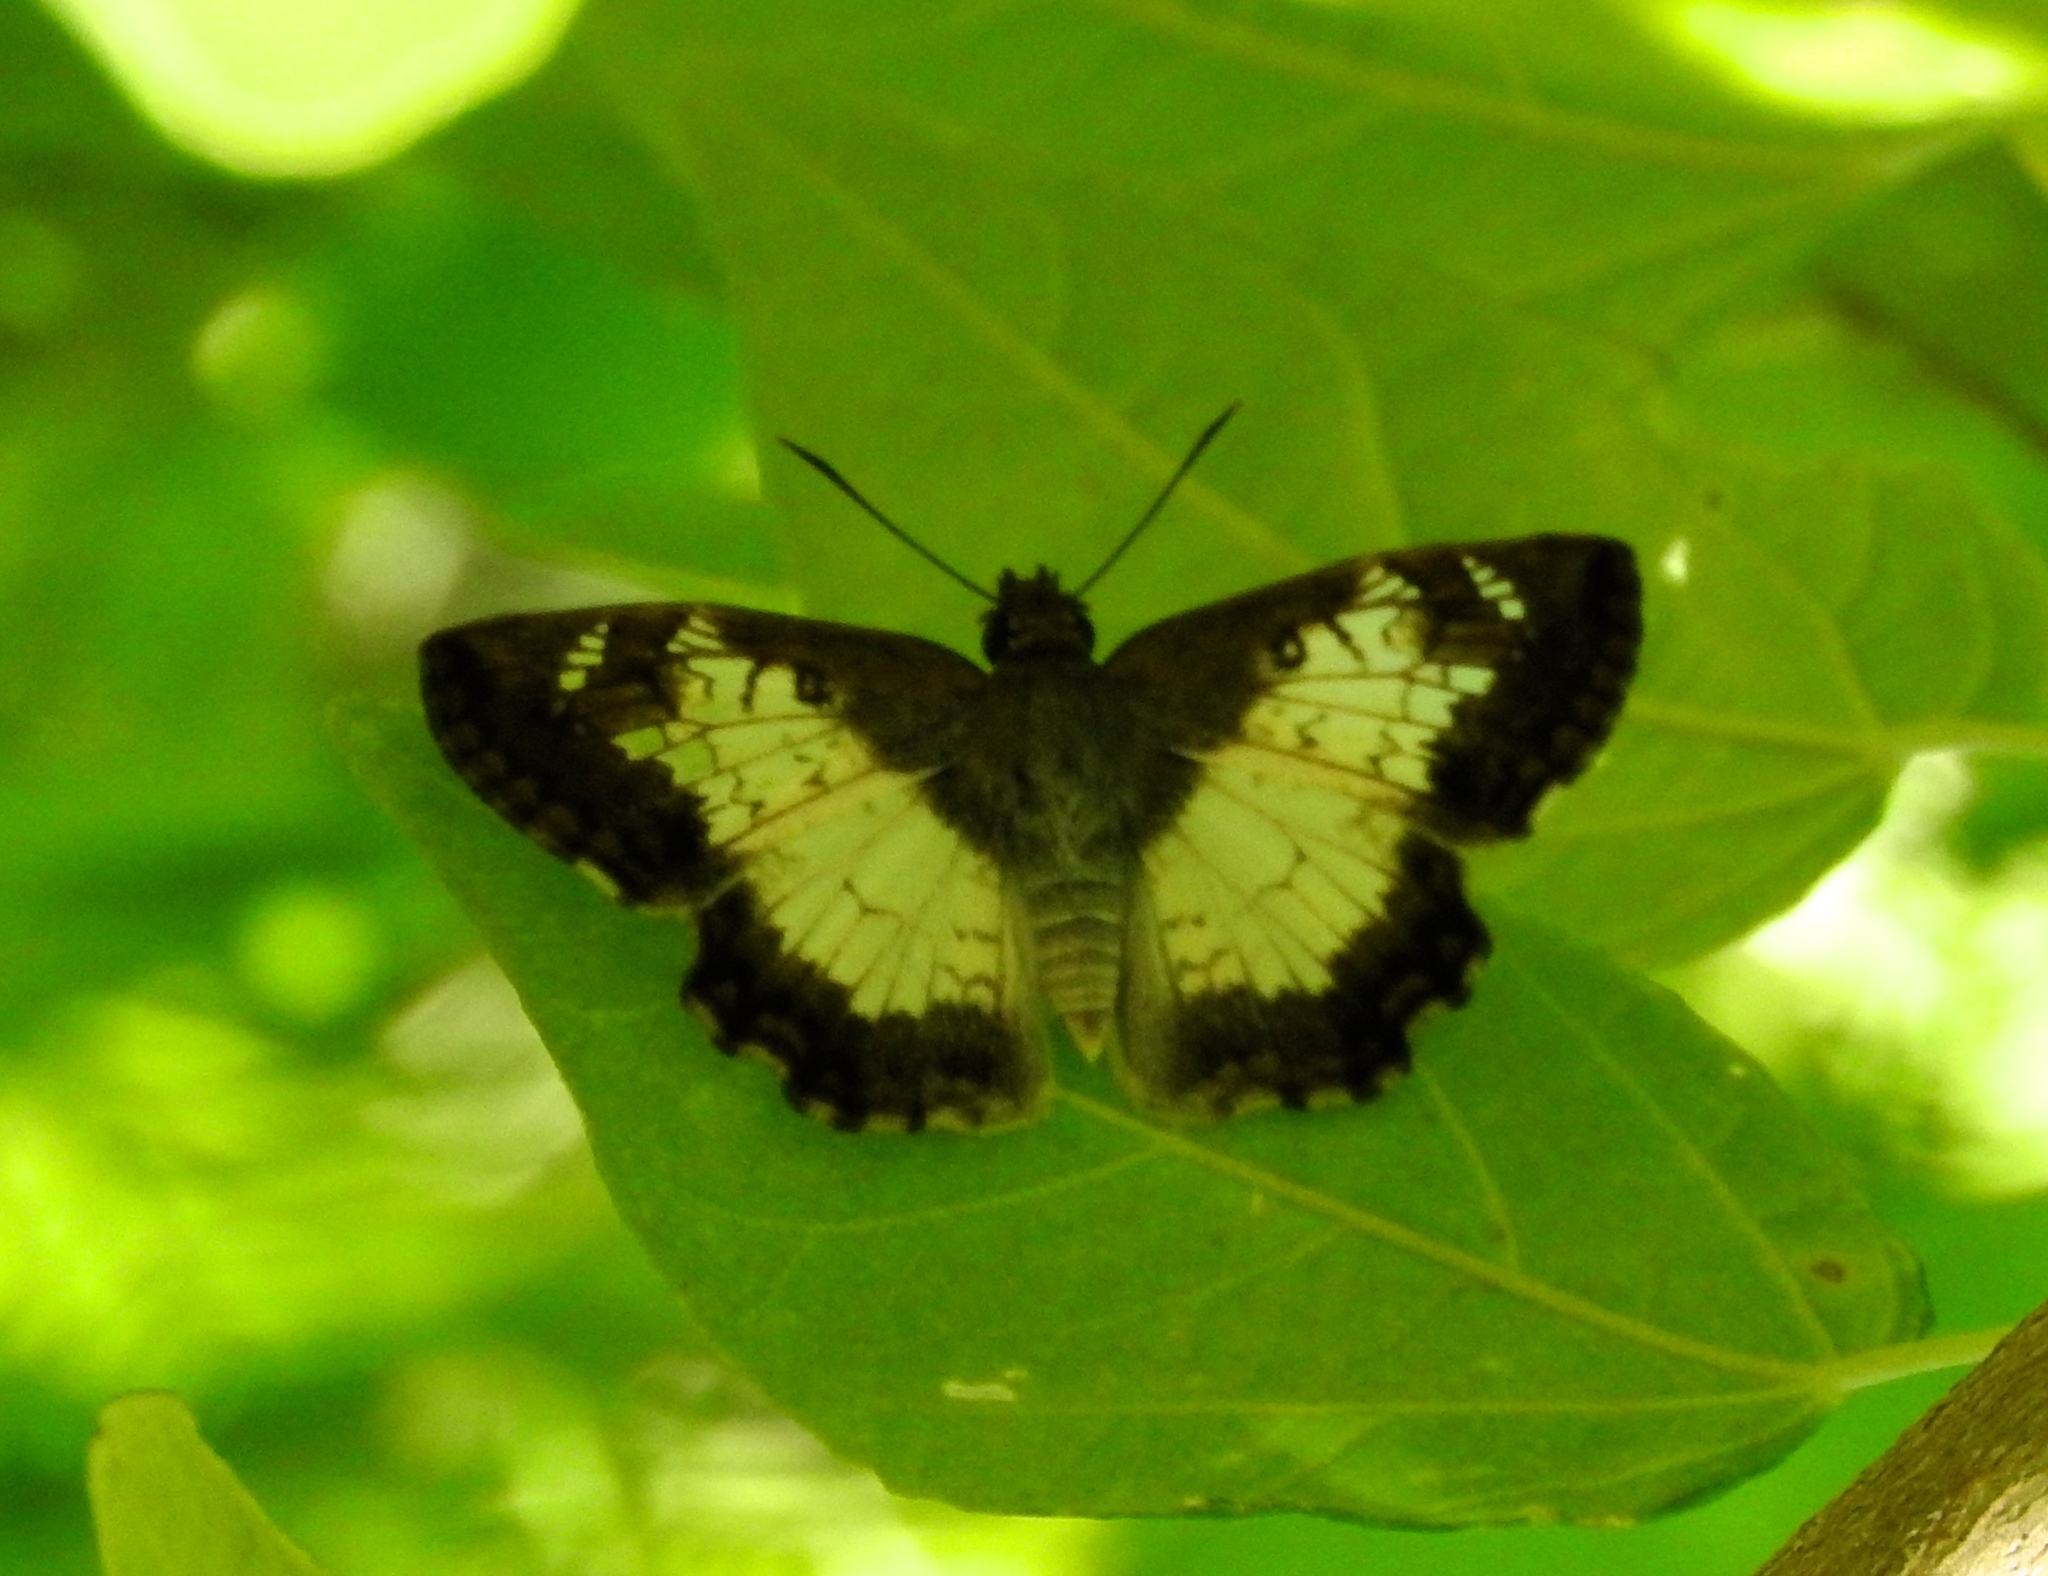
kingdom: Animalia
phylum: Arthropoda
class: Insecta
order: Lepidoptera
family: Hesperiidae
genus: Antigonus
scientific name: Antigonus emorsa
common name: White spurwing
